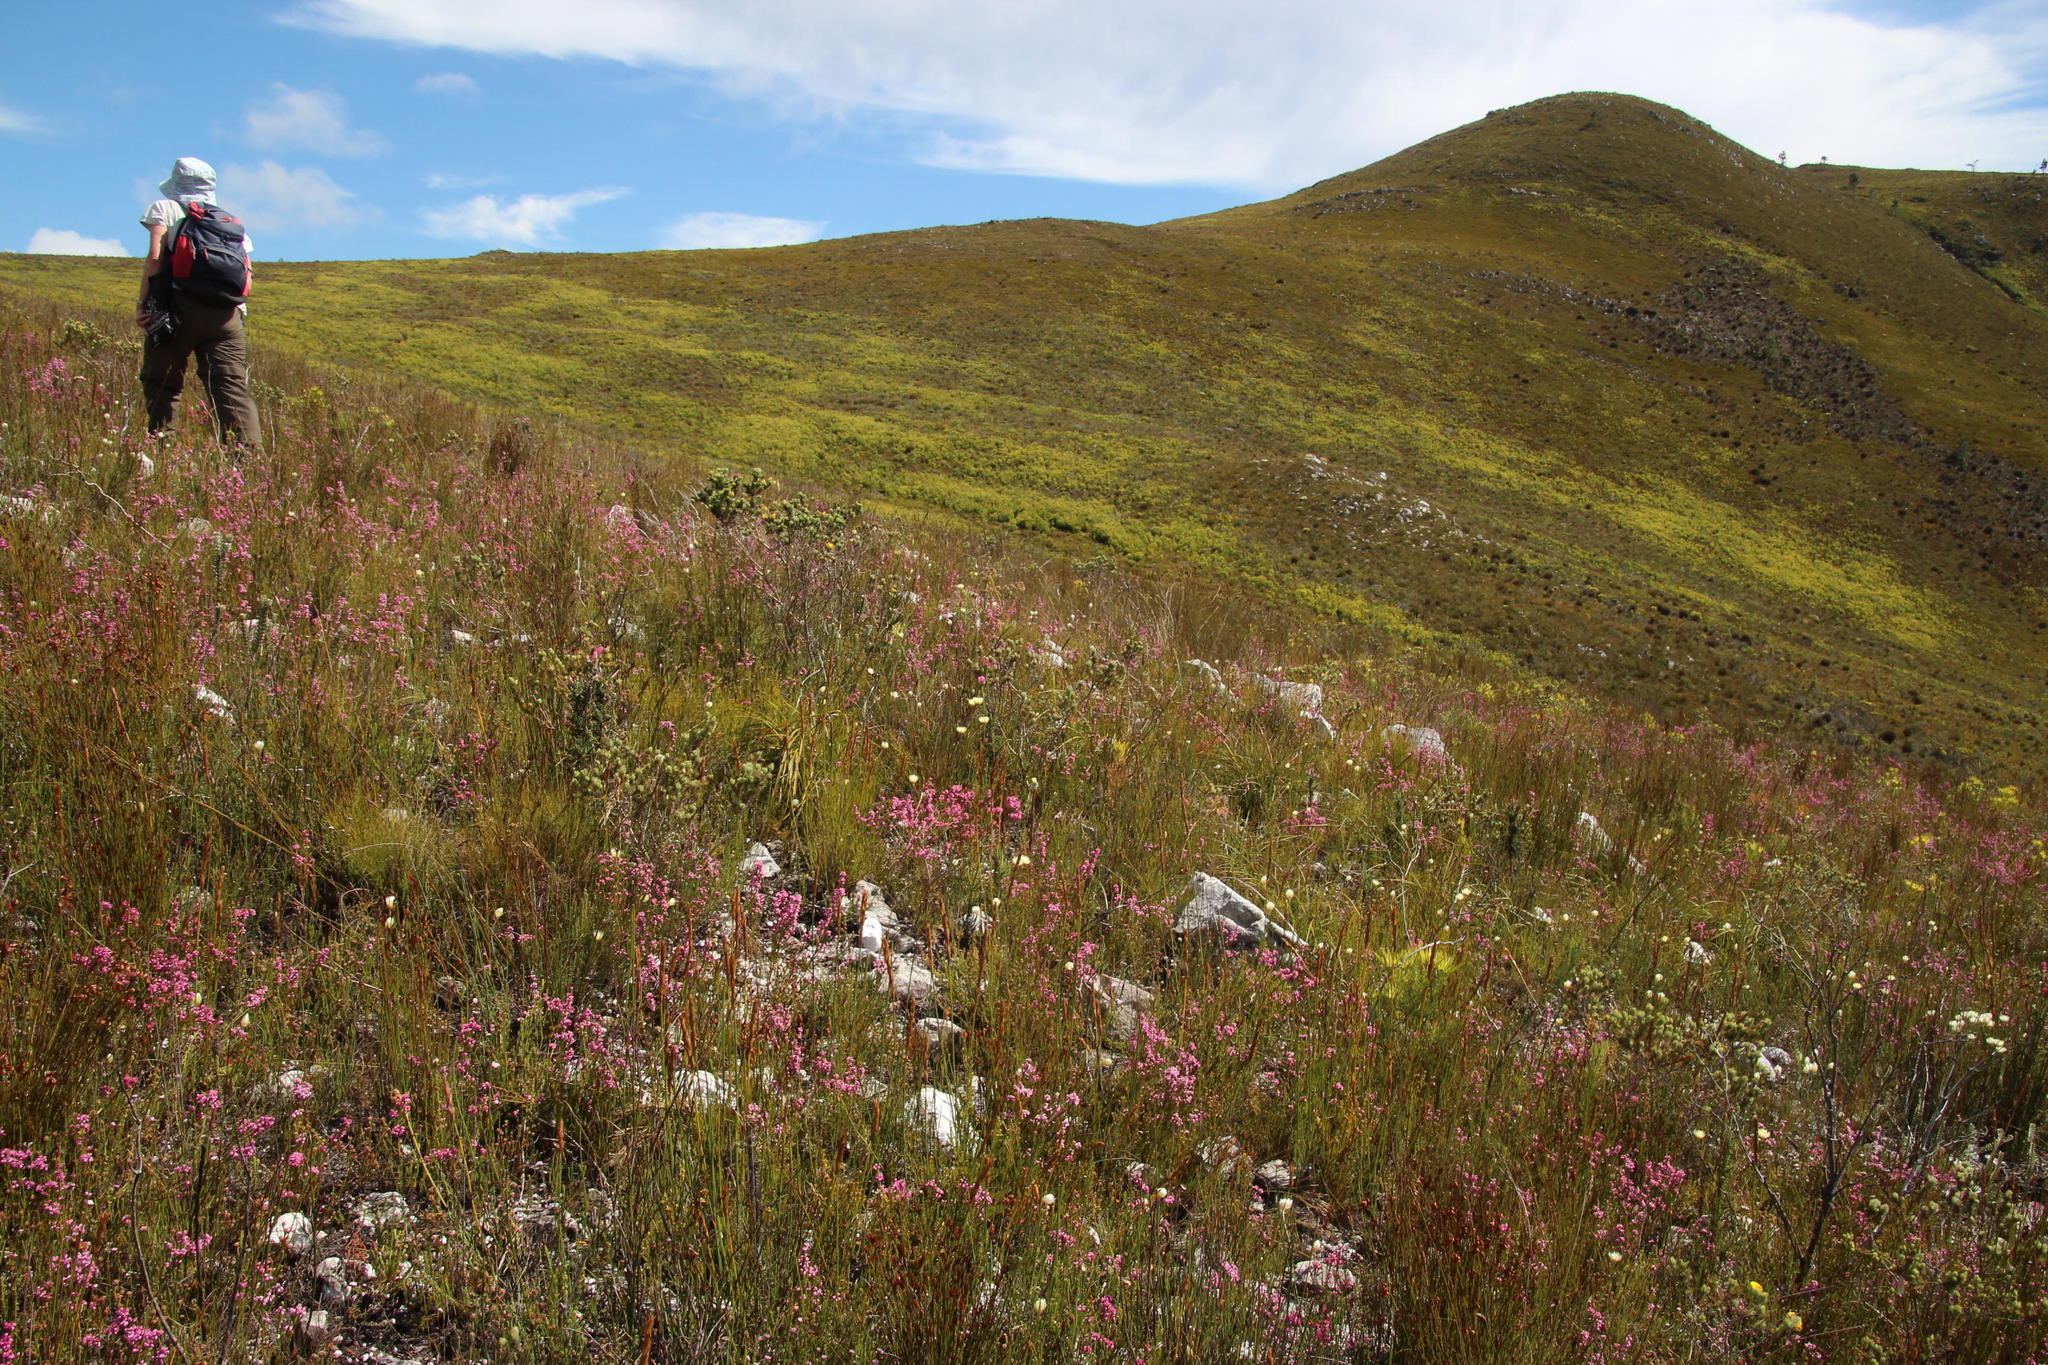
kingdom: Plantae
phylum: Tracheophyta
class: Magnoliopsida
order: Fabales
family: Fabaceae
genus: Aspalathus
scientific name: Aspalathus ciliaris
